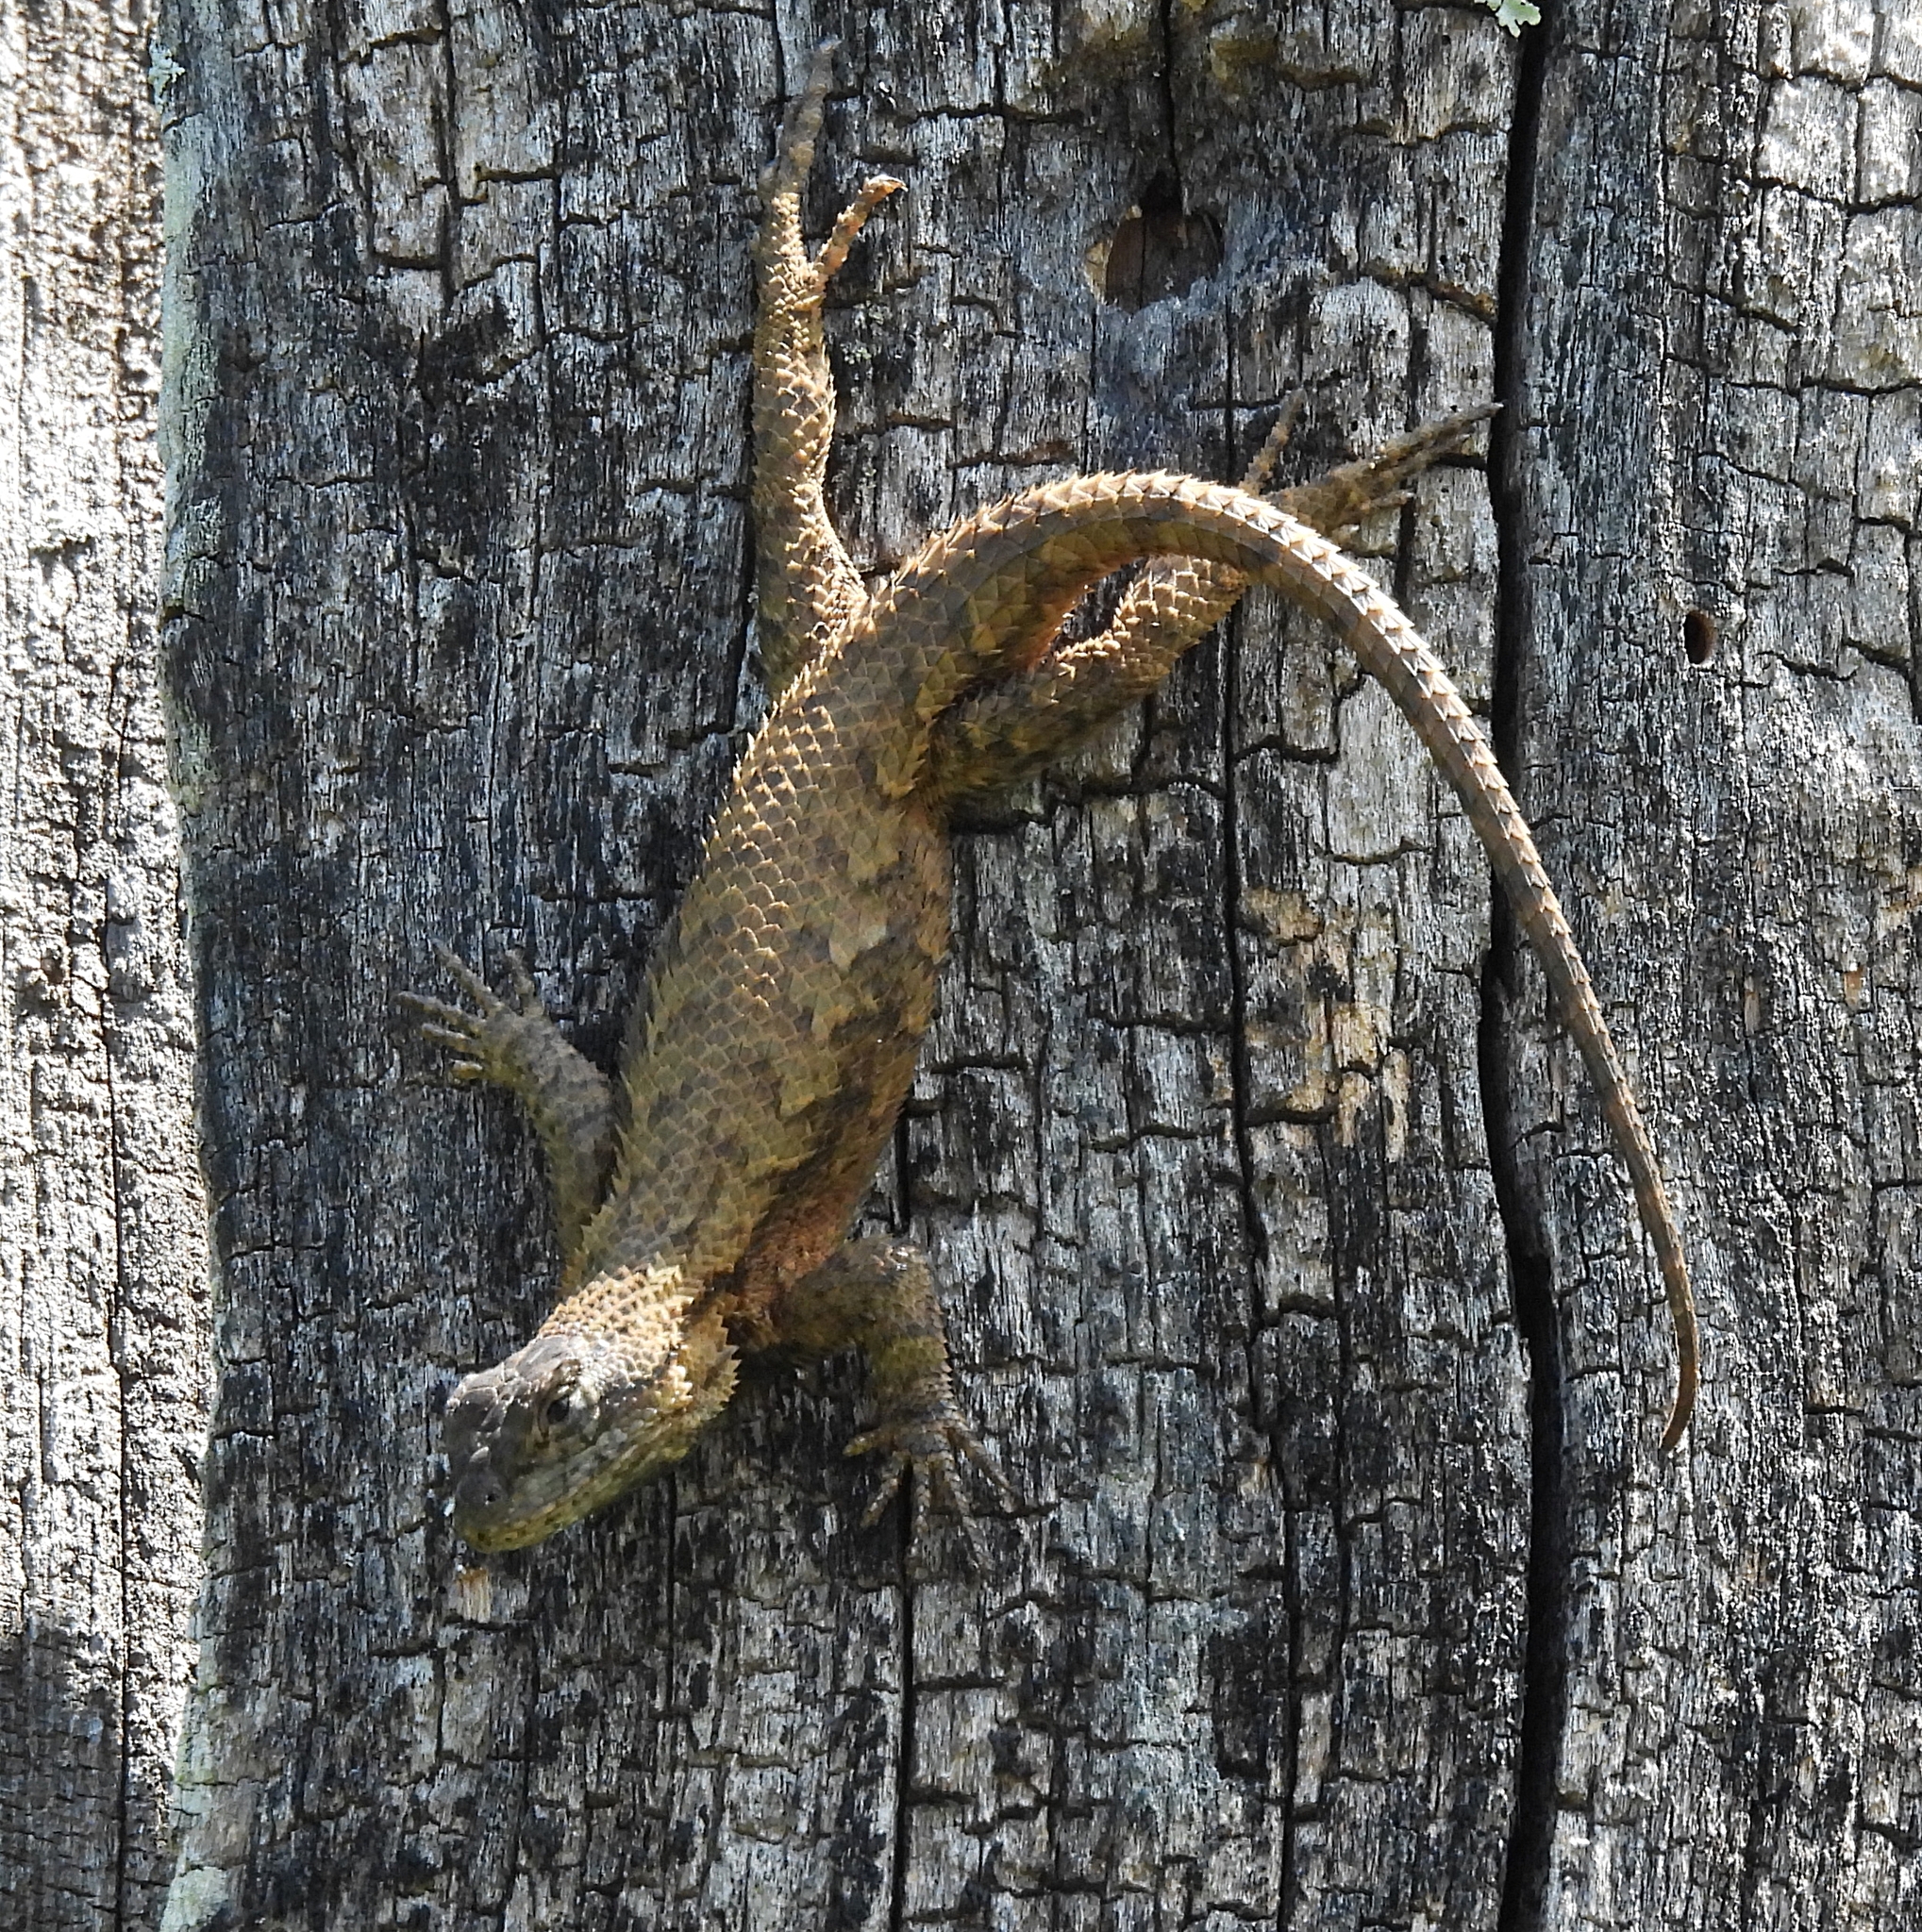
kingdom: Animalia
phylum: Chordata
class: Squamata
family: Phrynosomatidae
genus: Sceloporus
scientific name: Sceloporus undulatus
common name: Eastern fence lizard
